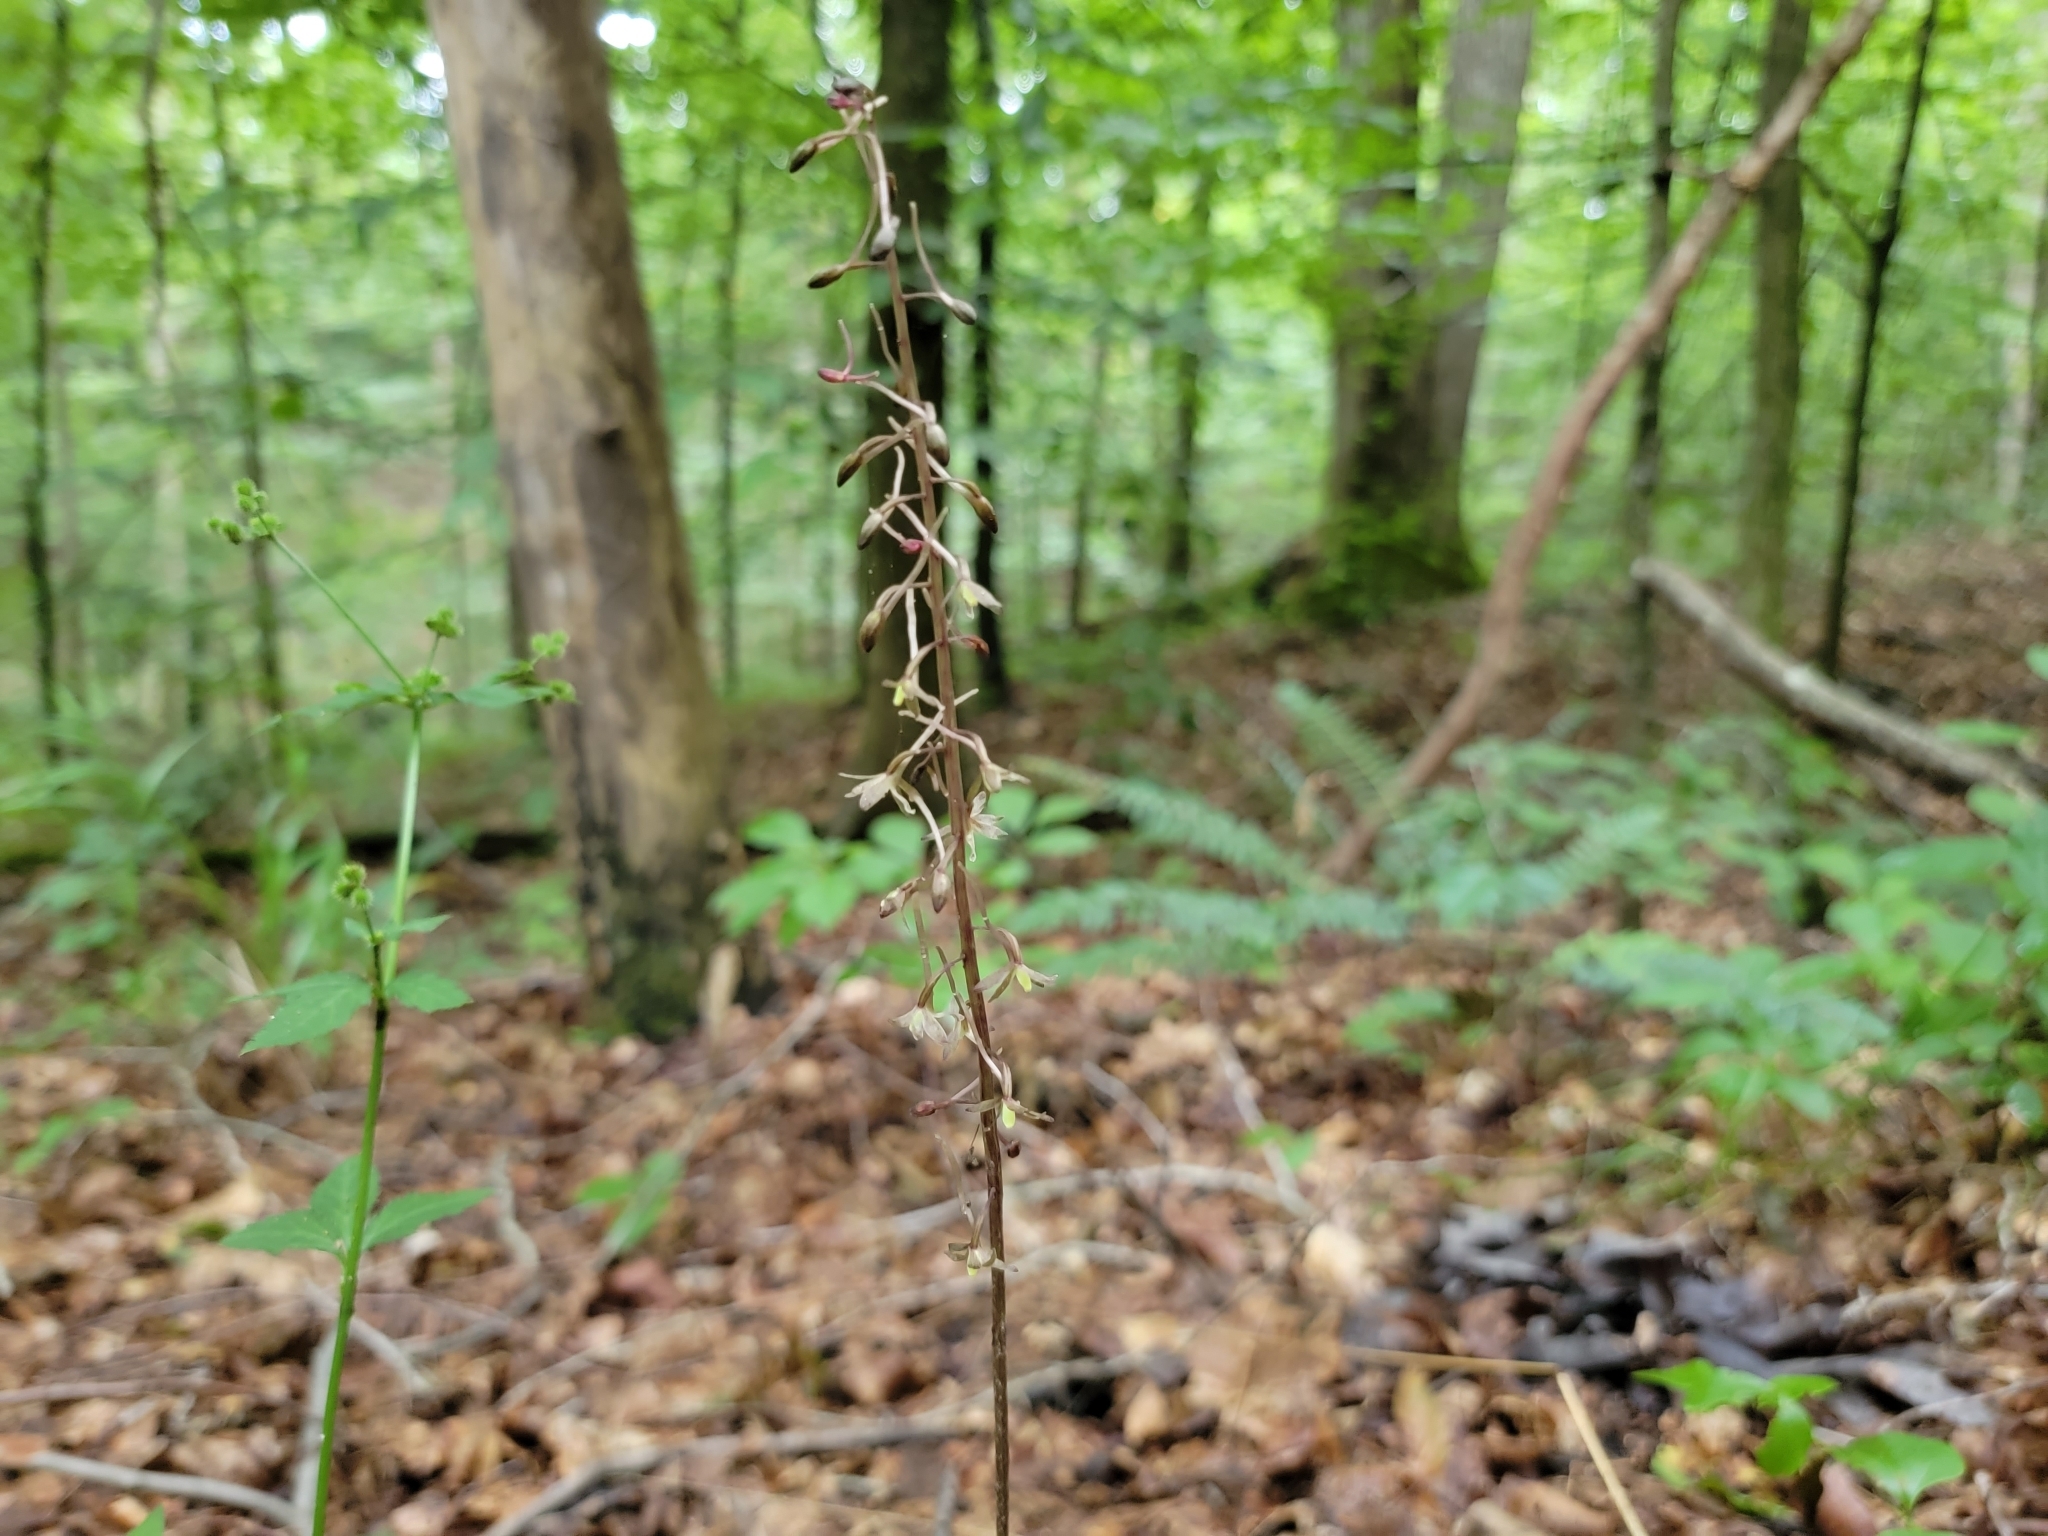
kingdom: Plantae
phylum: Tracheophyta
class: Liliopsida
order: Asparagales
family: Orchidaceae
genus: Tipularia
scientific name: Tipularia discolor
